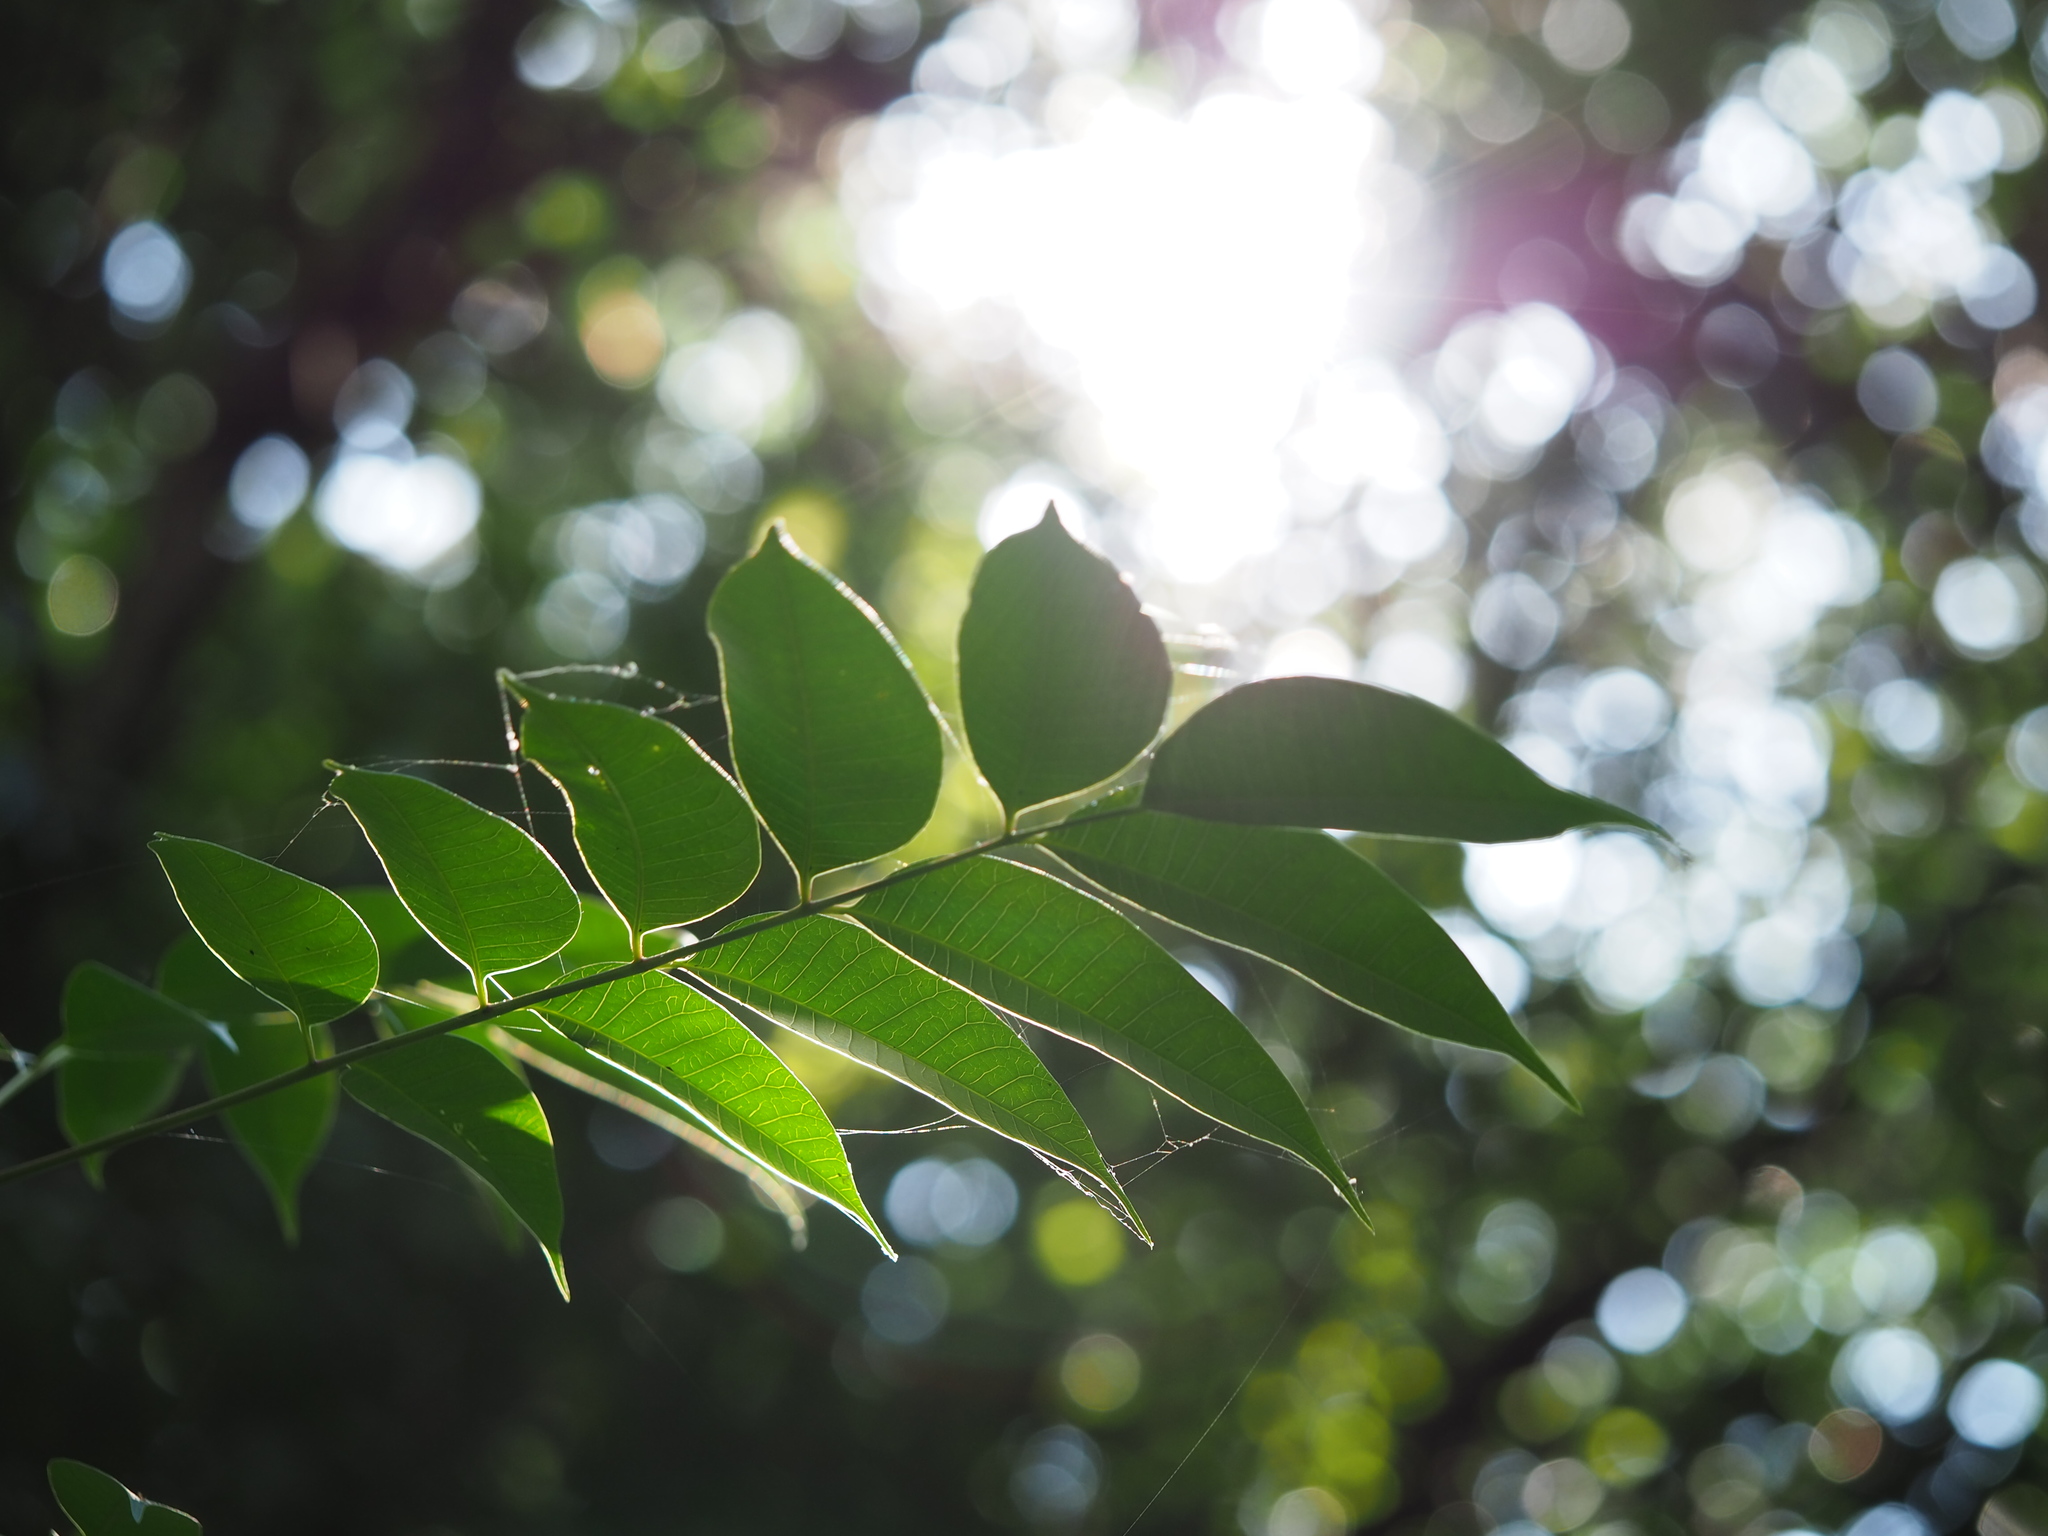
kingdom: Plantae
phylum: Tracheophyta
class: Magnoliopsida
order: Sapindales
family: Anacardiaceae
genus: Toxicodendron
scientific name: Toxicodendron succedaneum
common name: Wax tree
